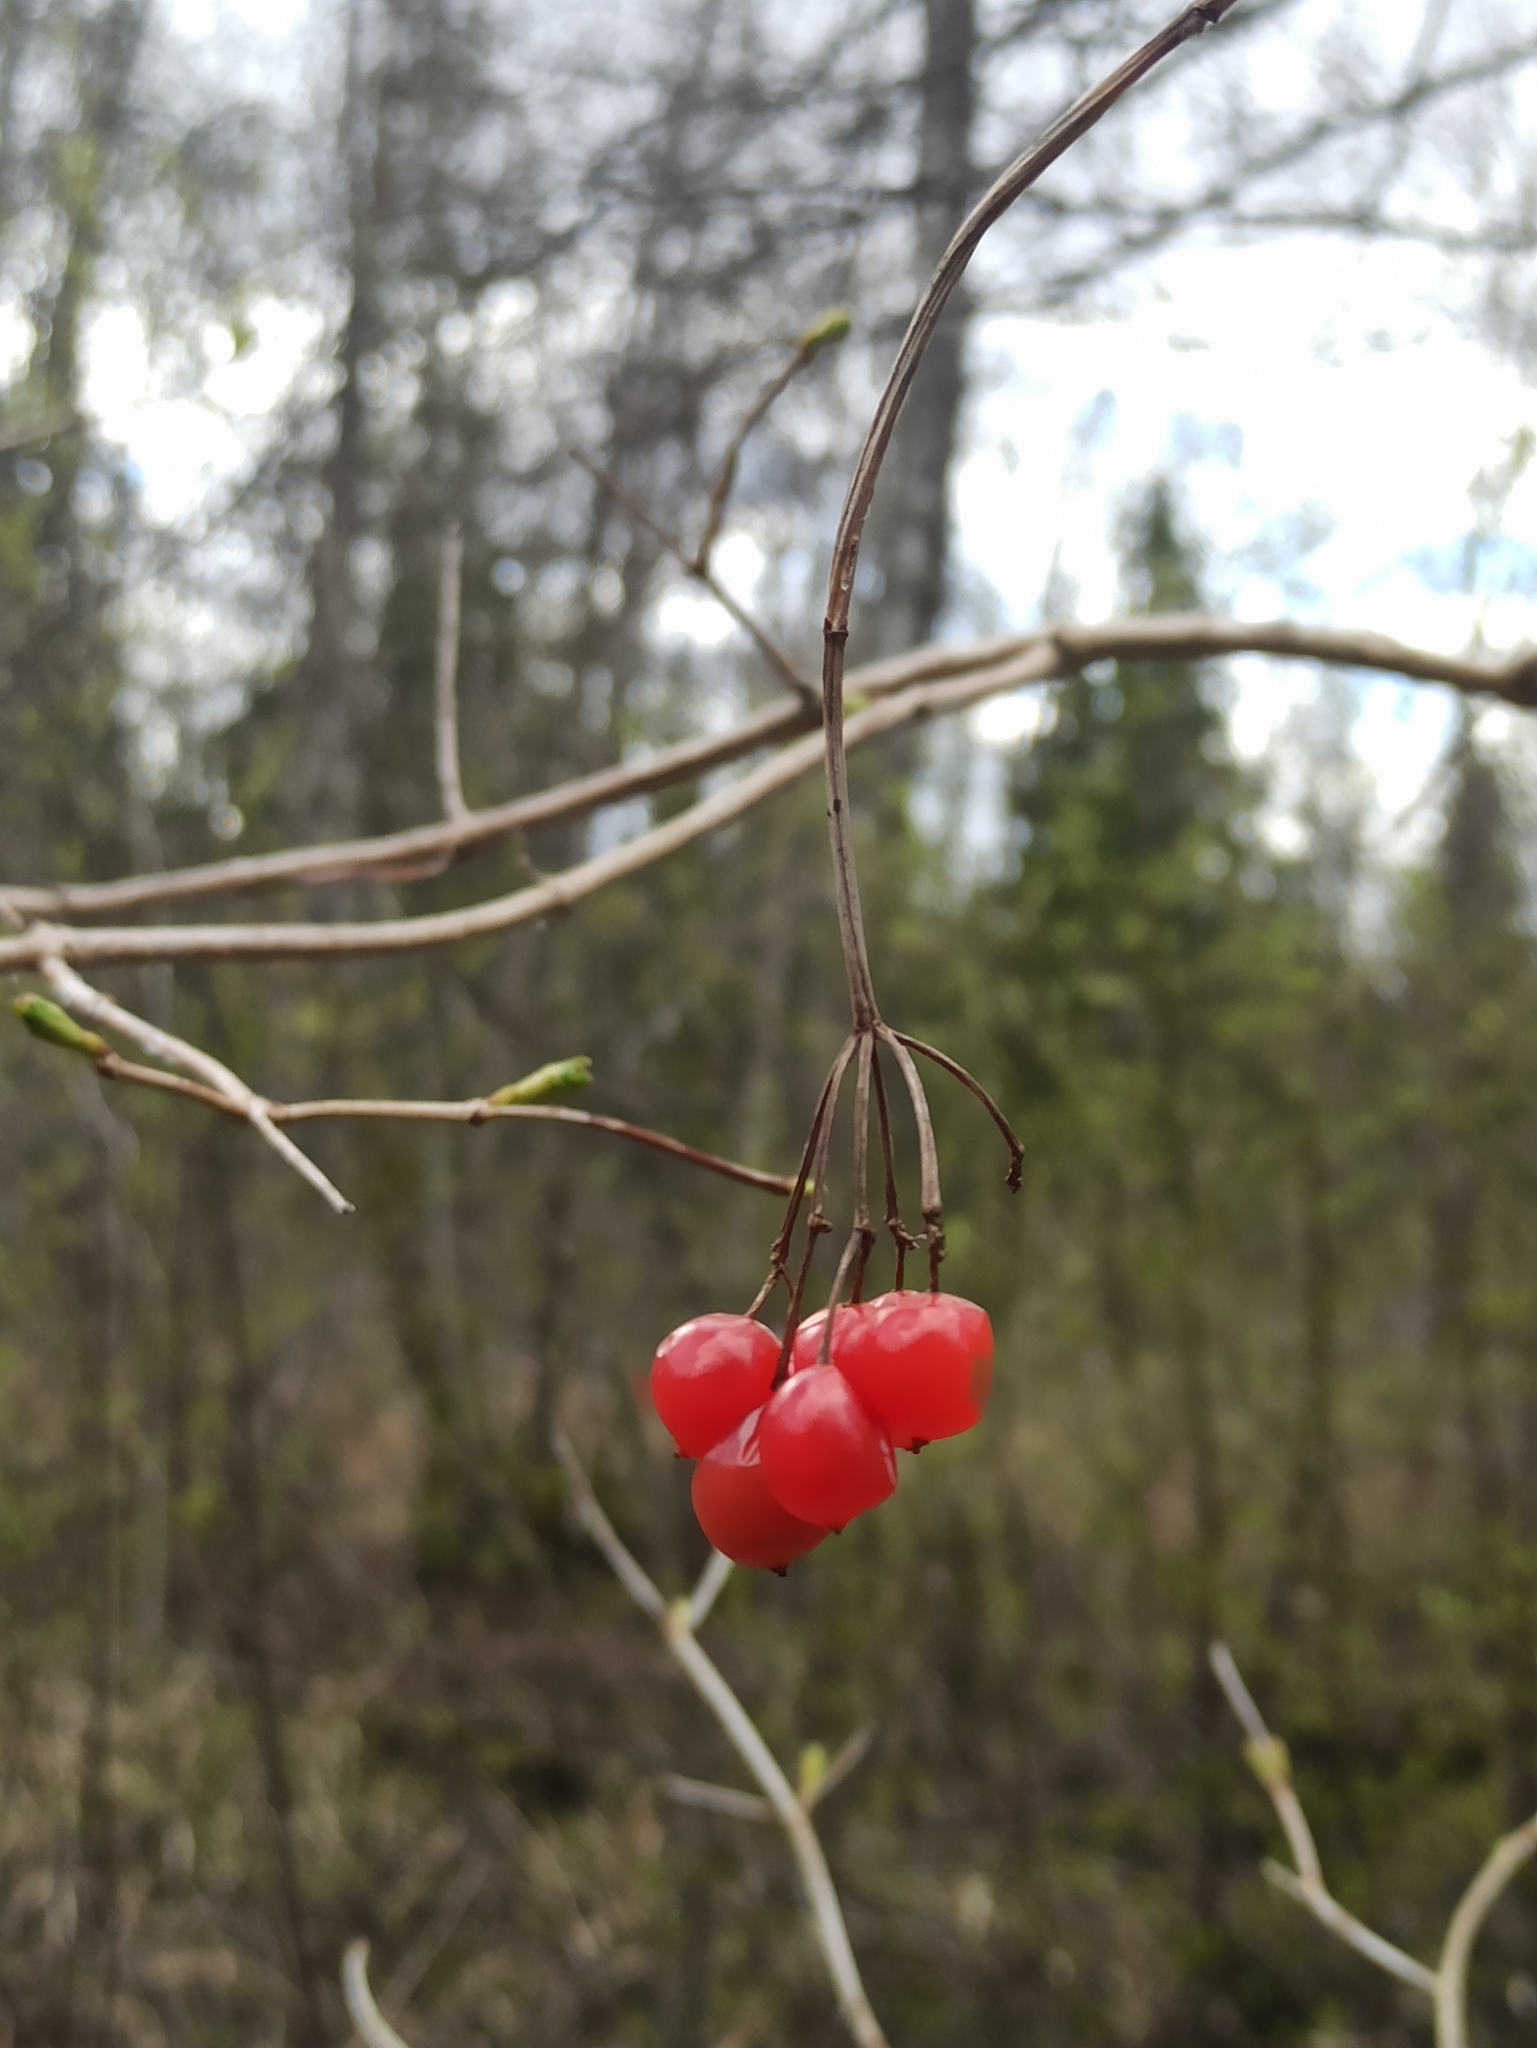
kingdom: Plantae
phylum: Tracheophyta
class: Magnoliopsida
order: Dipsacales
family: Viburnaceae
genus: Viburnum
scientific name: Viburnum opulus
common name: Guelder-rose
